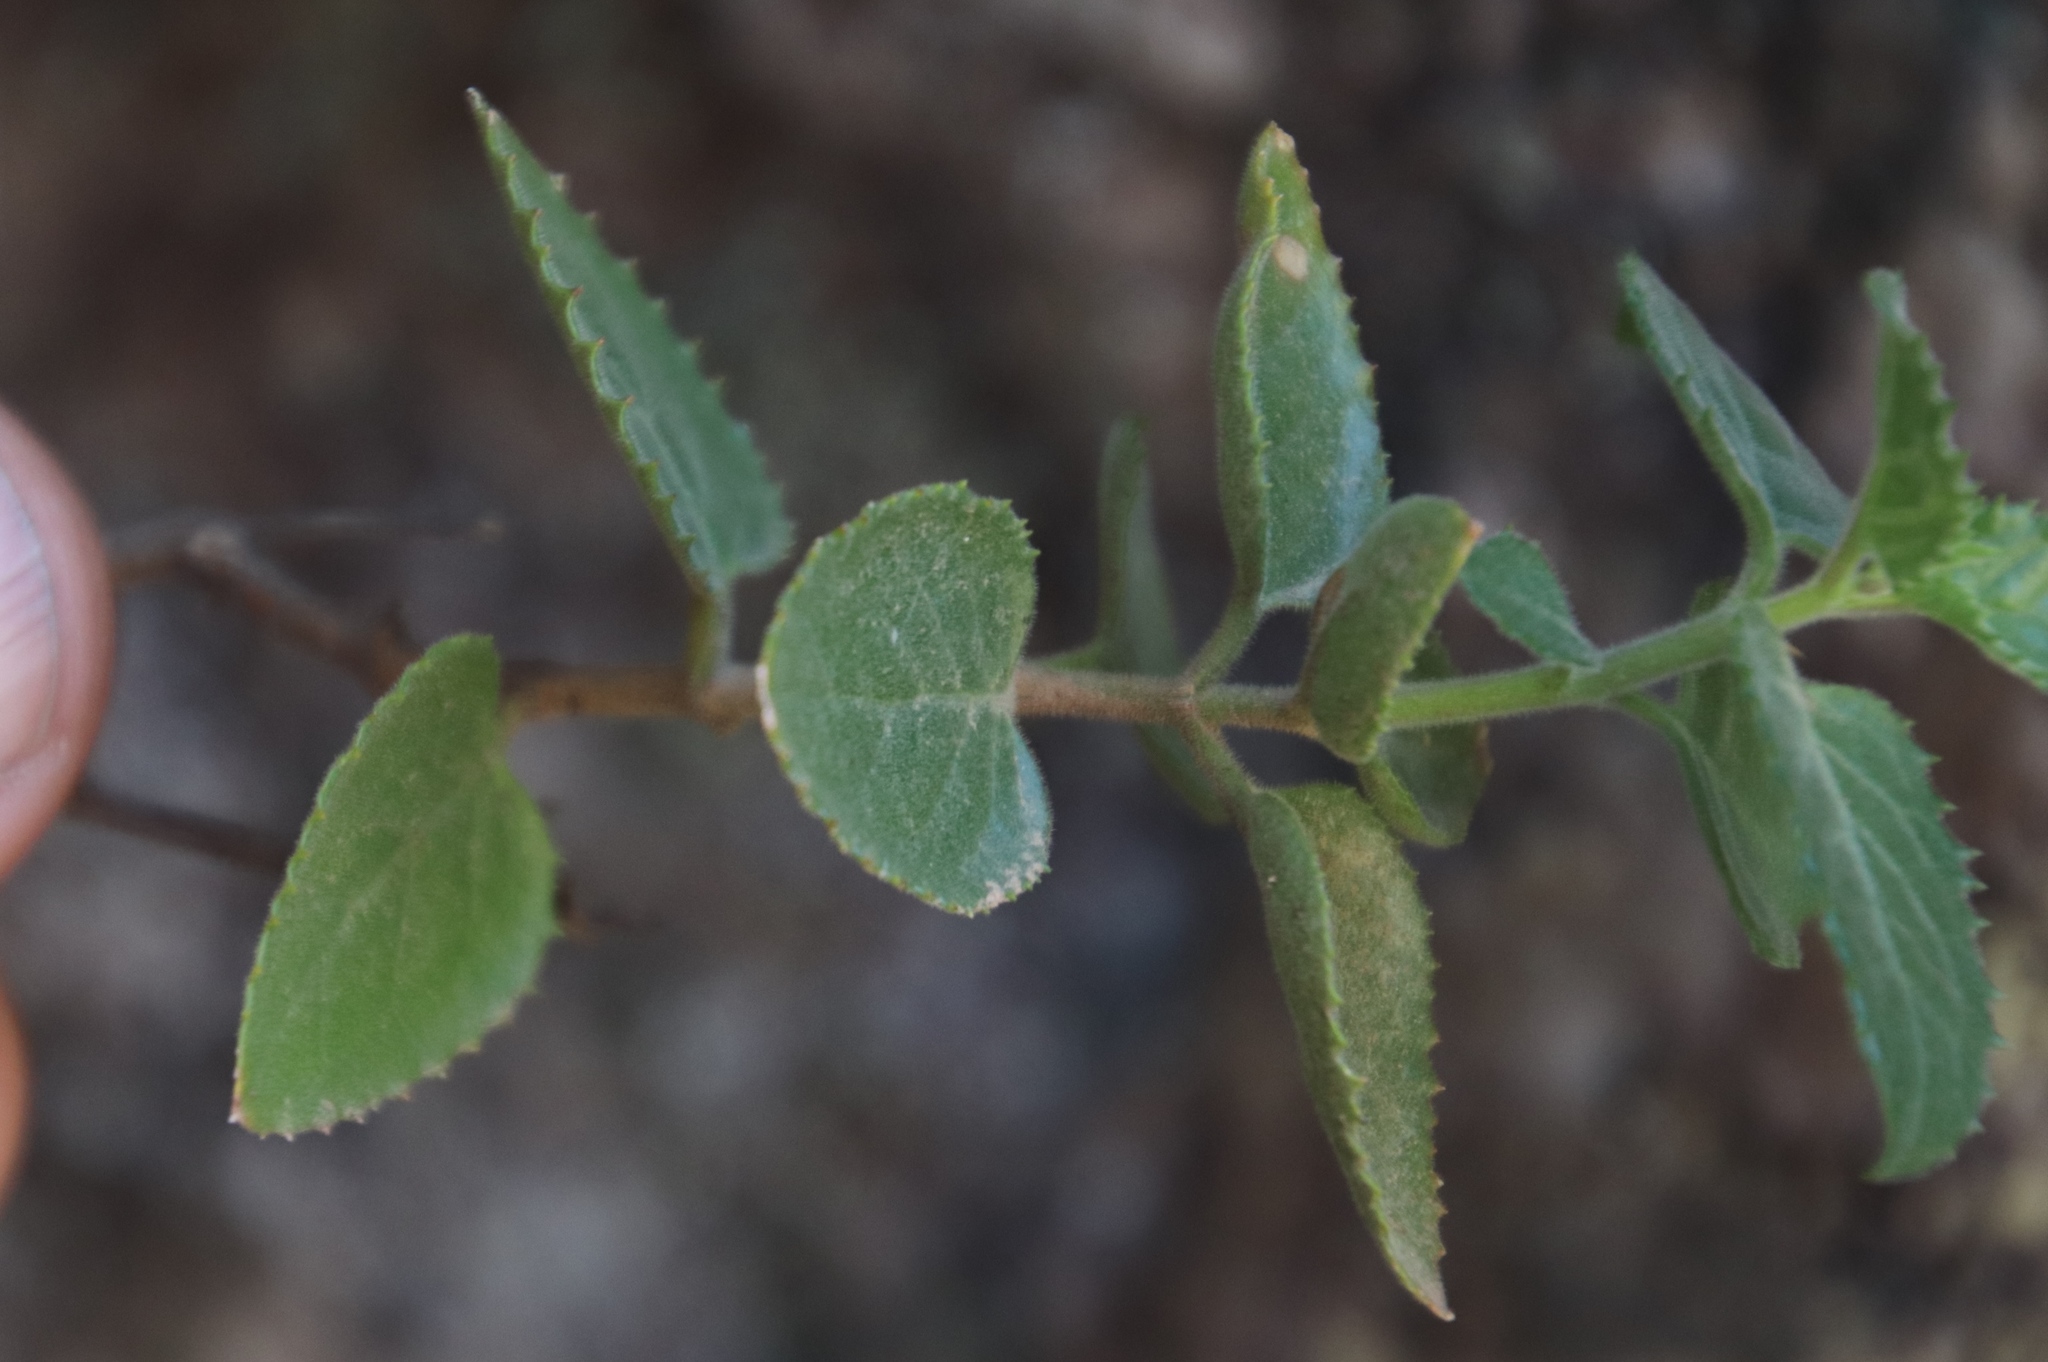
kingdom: Plantae
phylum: Tracheophyta
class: Magnoliopsida
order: Lamiales
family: Scrophulariaceae
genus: Teedia
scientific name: Teedia pubescens
